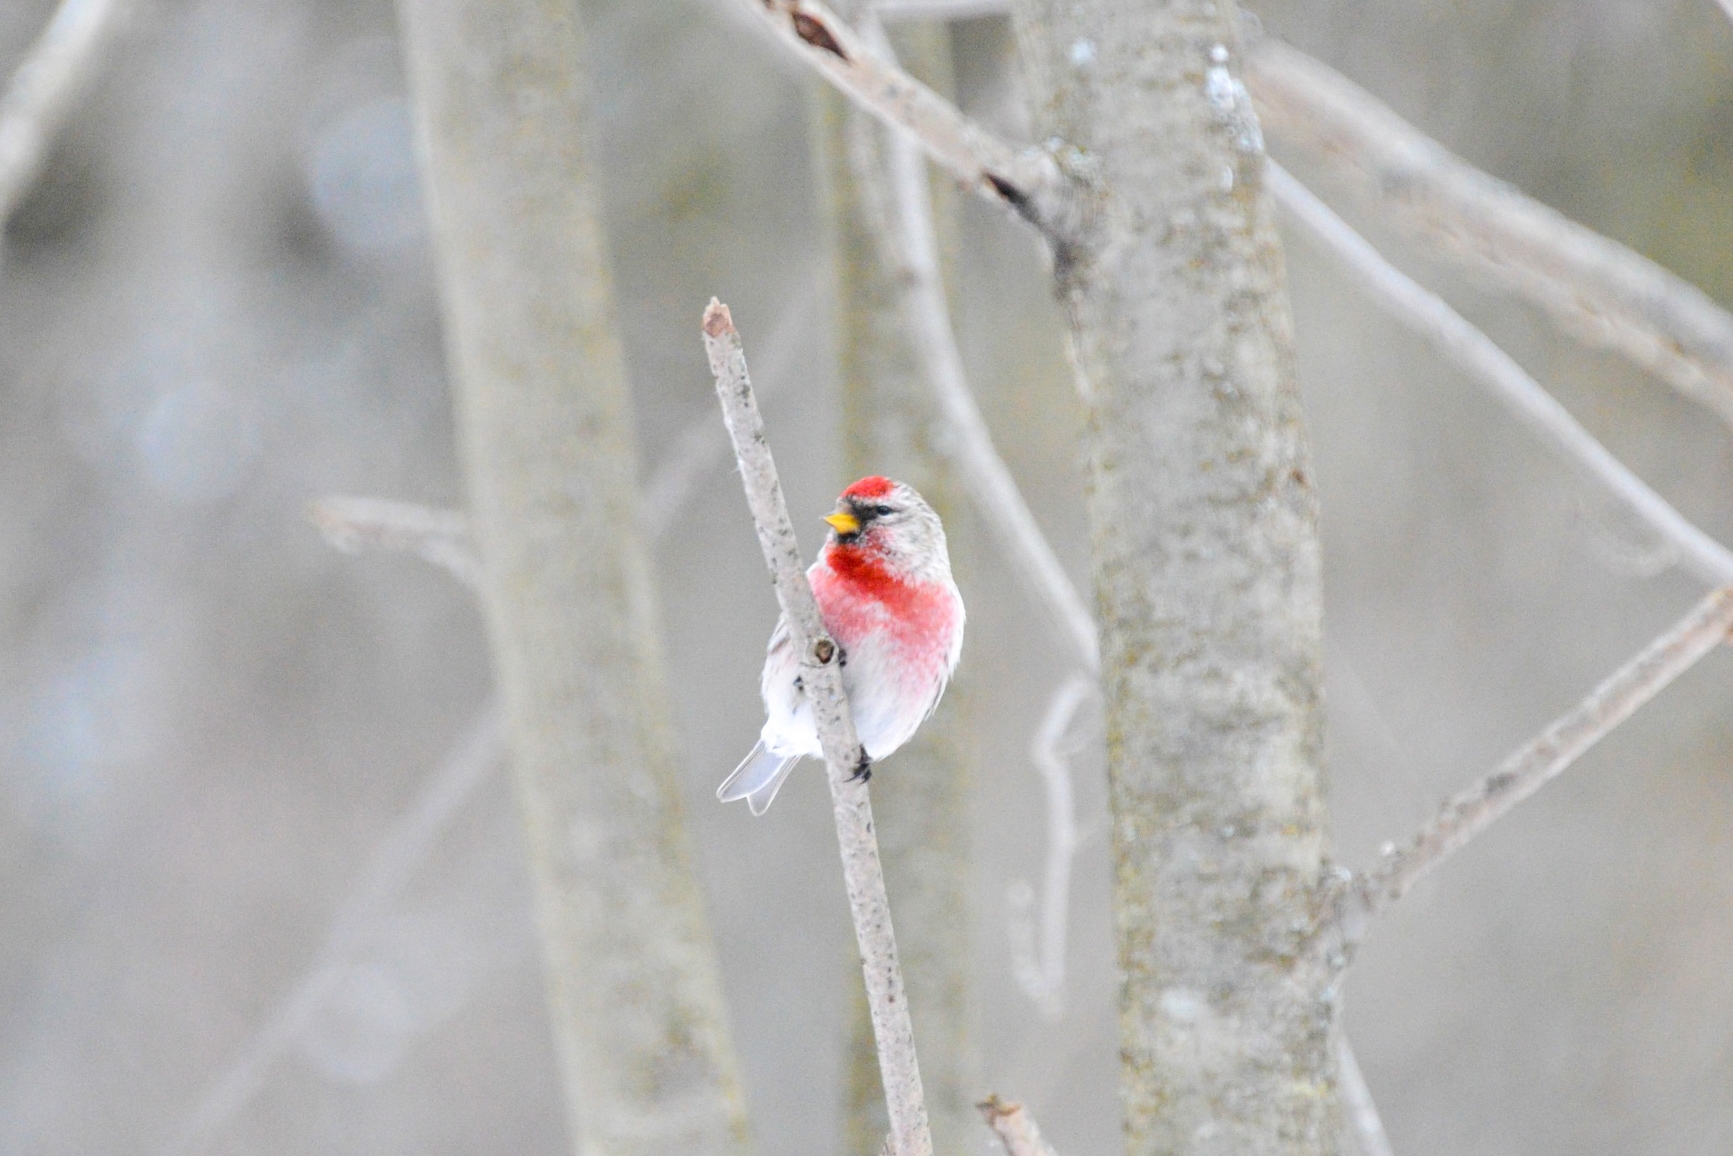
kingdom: Animalia
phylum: Chordata
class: Aves
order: Passeriformes
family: Fringillidae
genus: Acanthis
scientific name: Acanthis flammea
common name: Common redpoll
